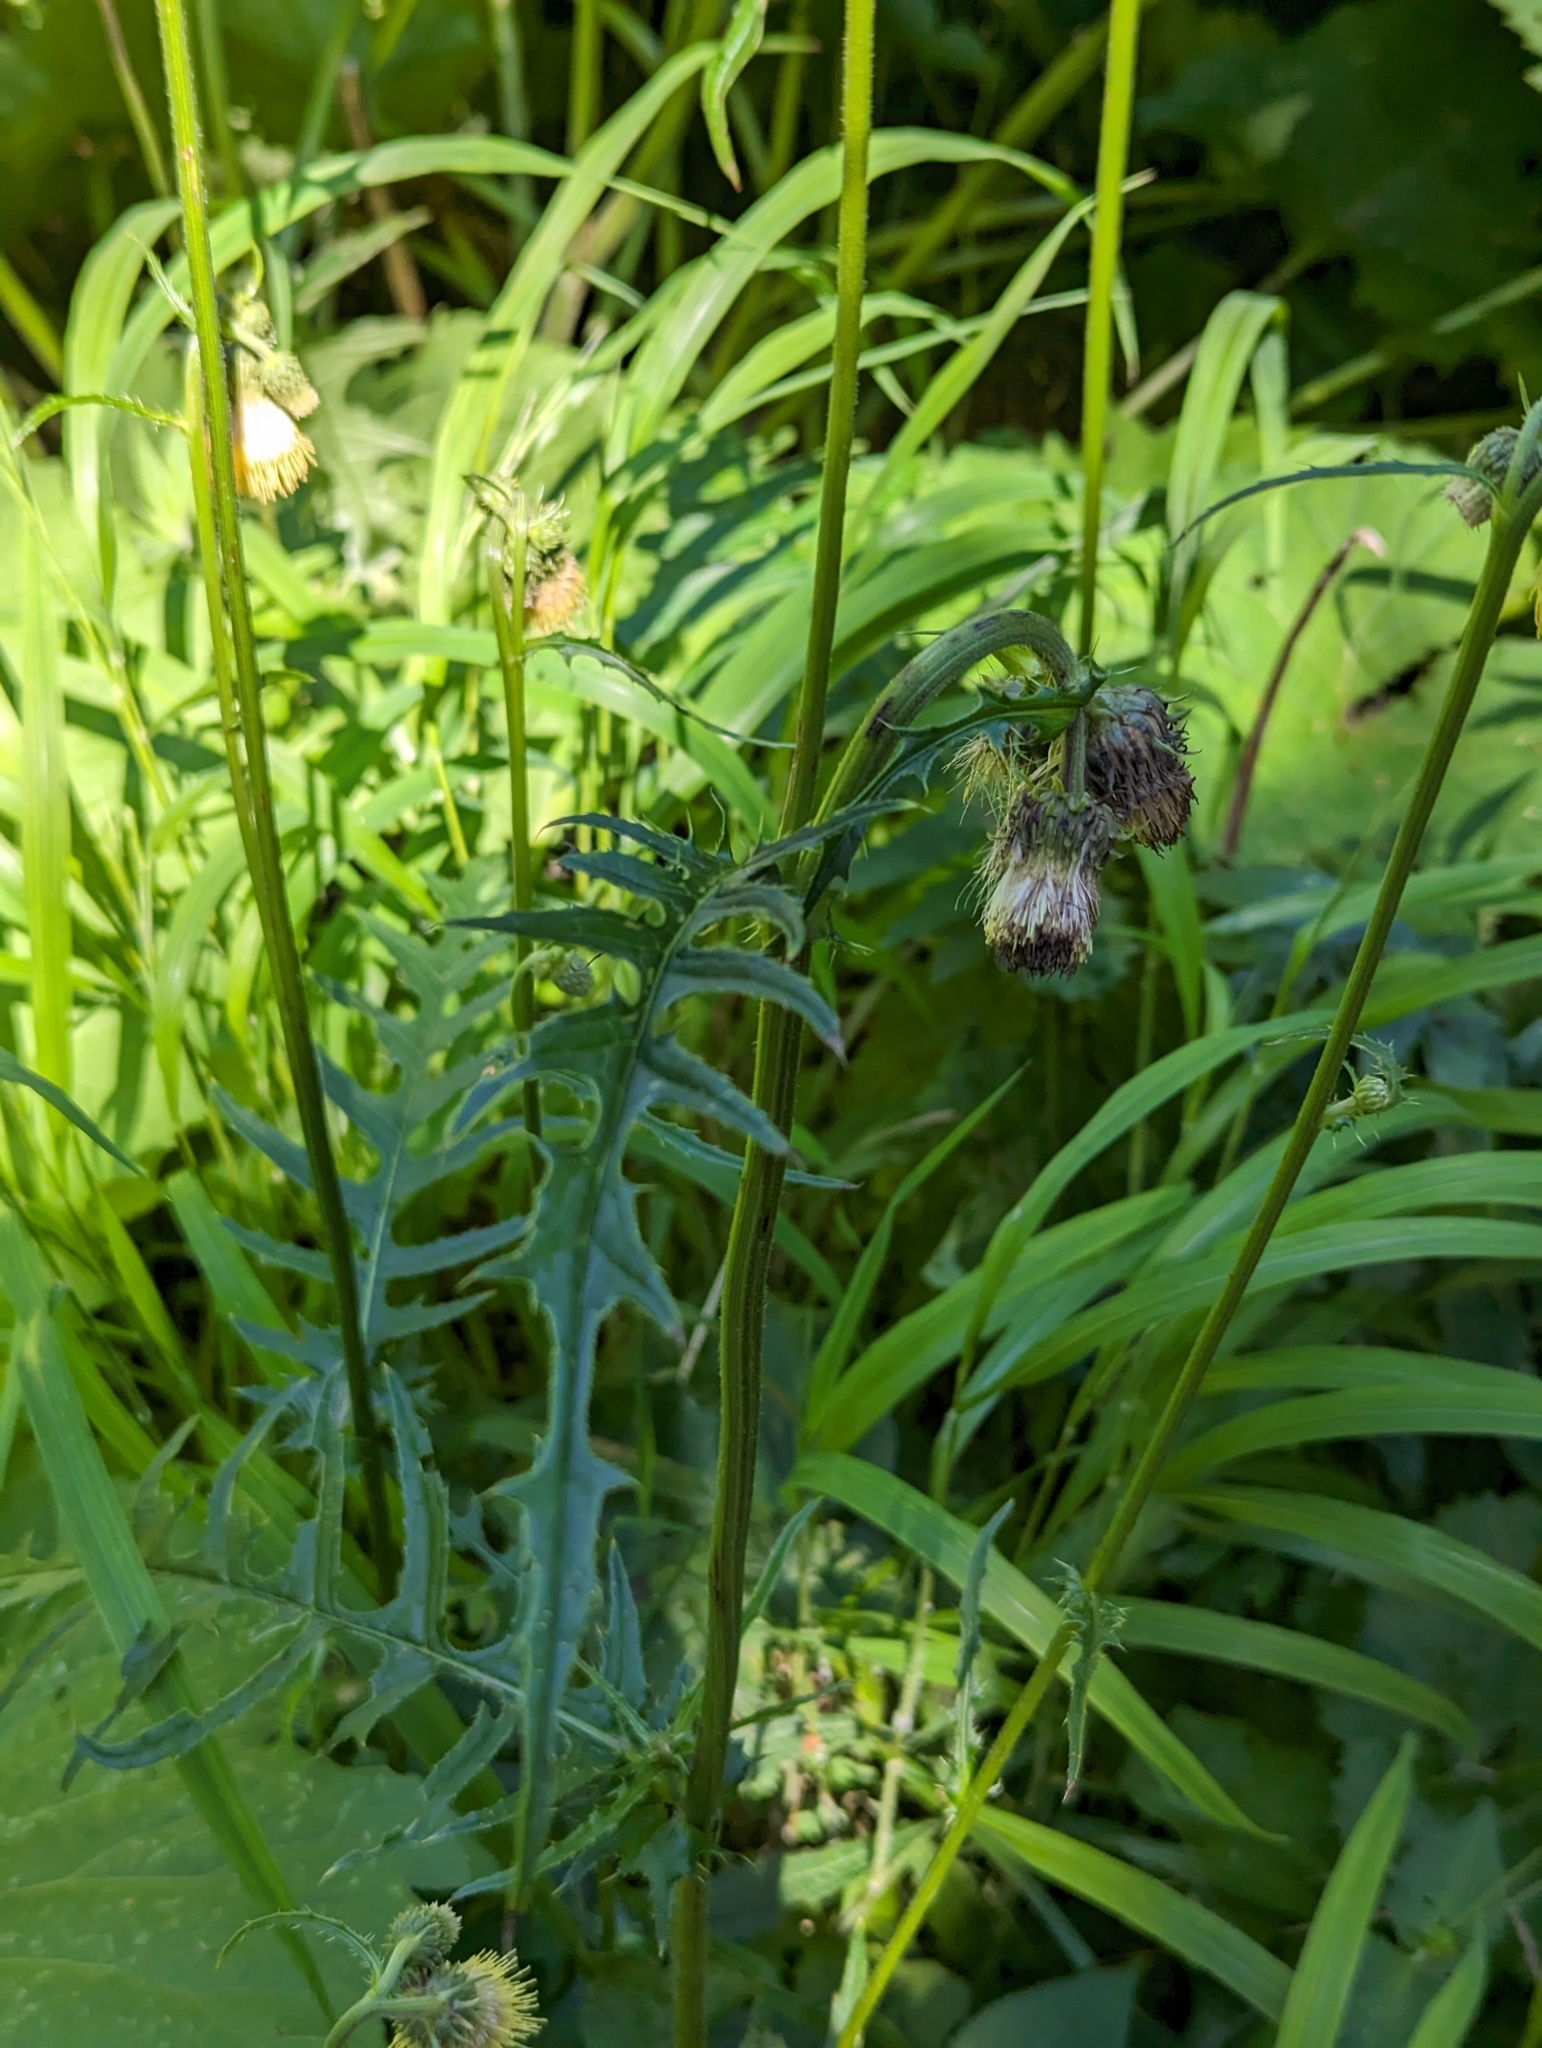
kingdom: Plantae
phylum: Tracheophyta
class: Magnoliopsida
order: Asterales
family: Asteraceae
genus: Cirsium
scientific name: Cirsium erisithales
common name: Yellow thistle
